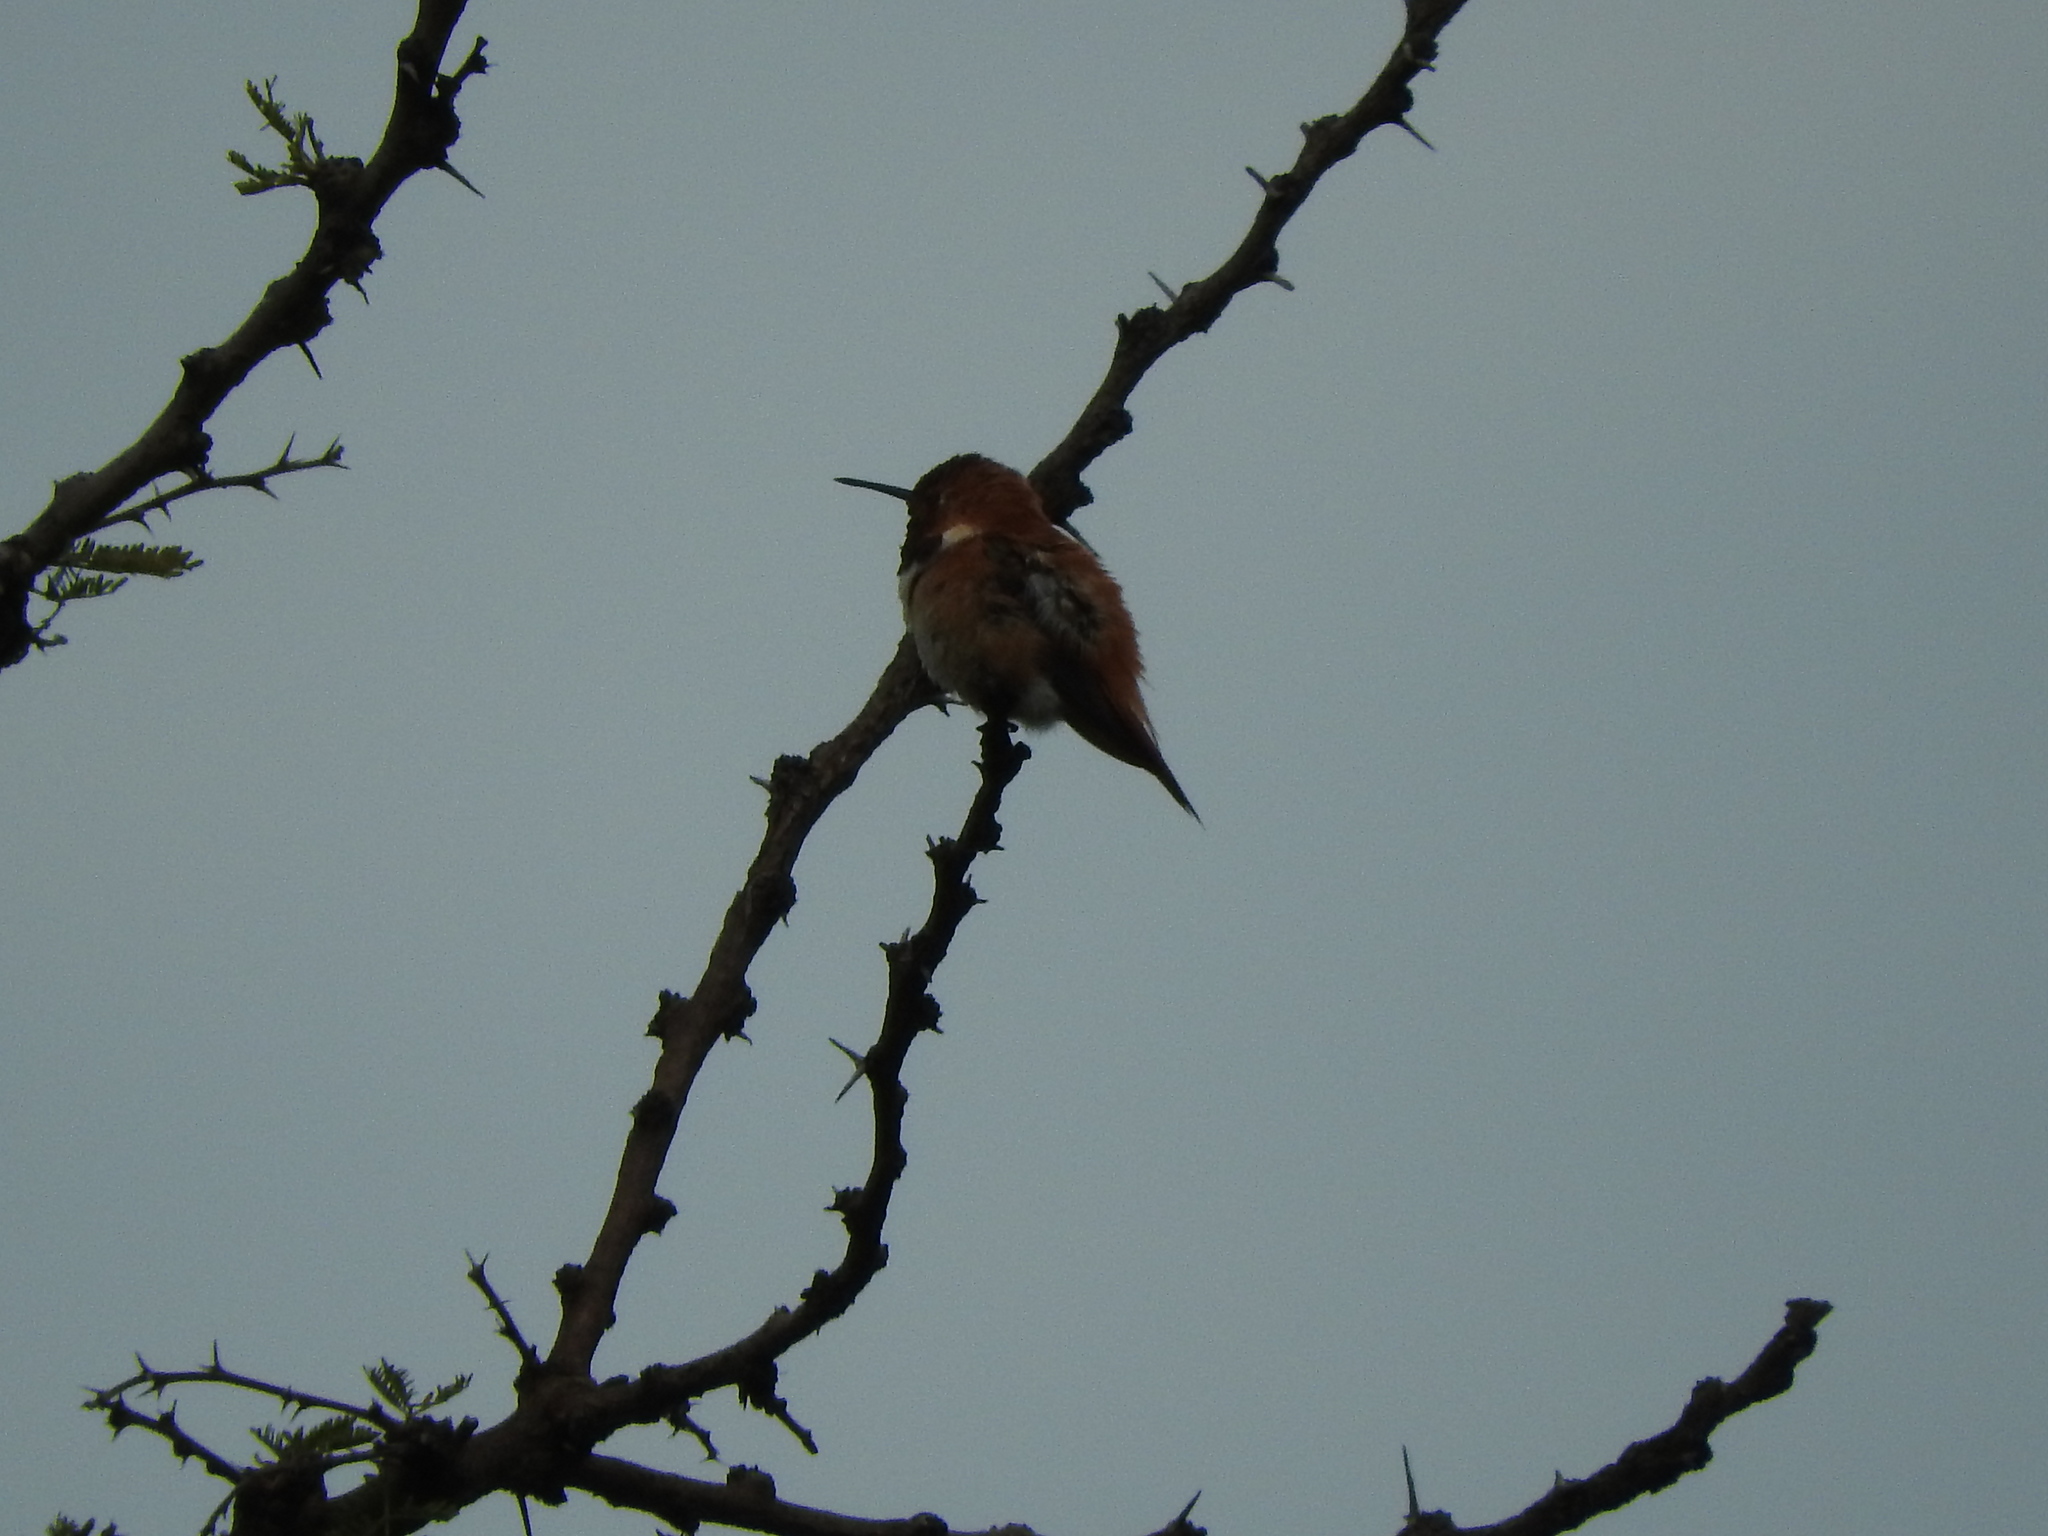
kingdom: Animalia
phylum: Chordata
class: Aves
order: Apodiformes
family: Trochilidae
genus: Selasphorus
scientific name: Selasphorus rufus
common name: Rufous hummingbird
